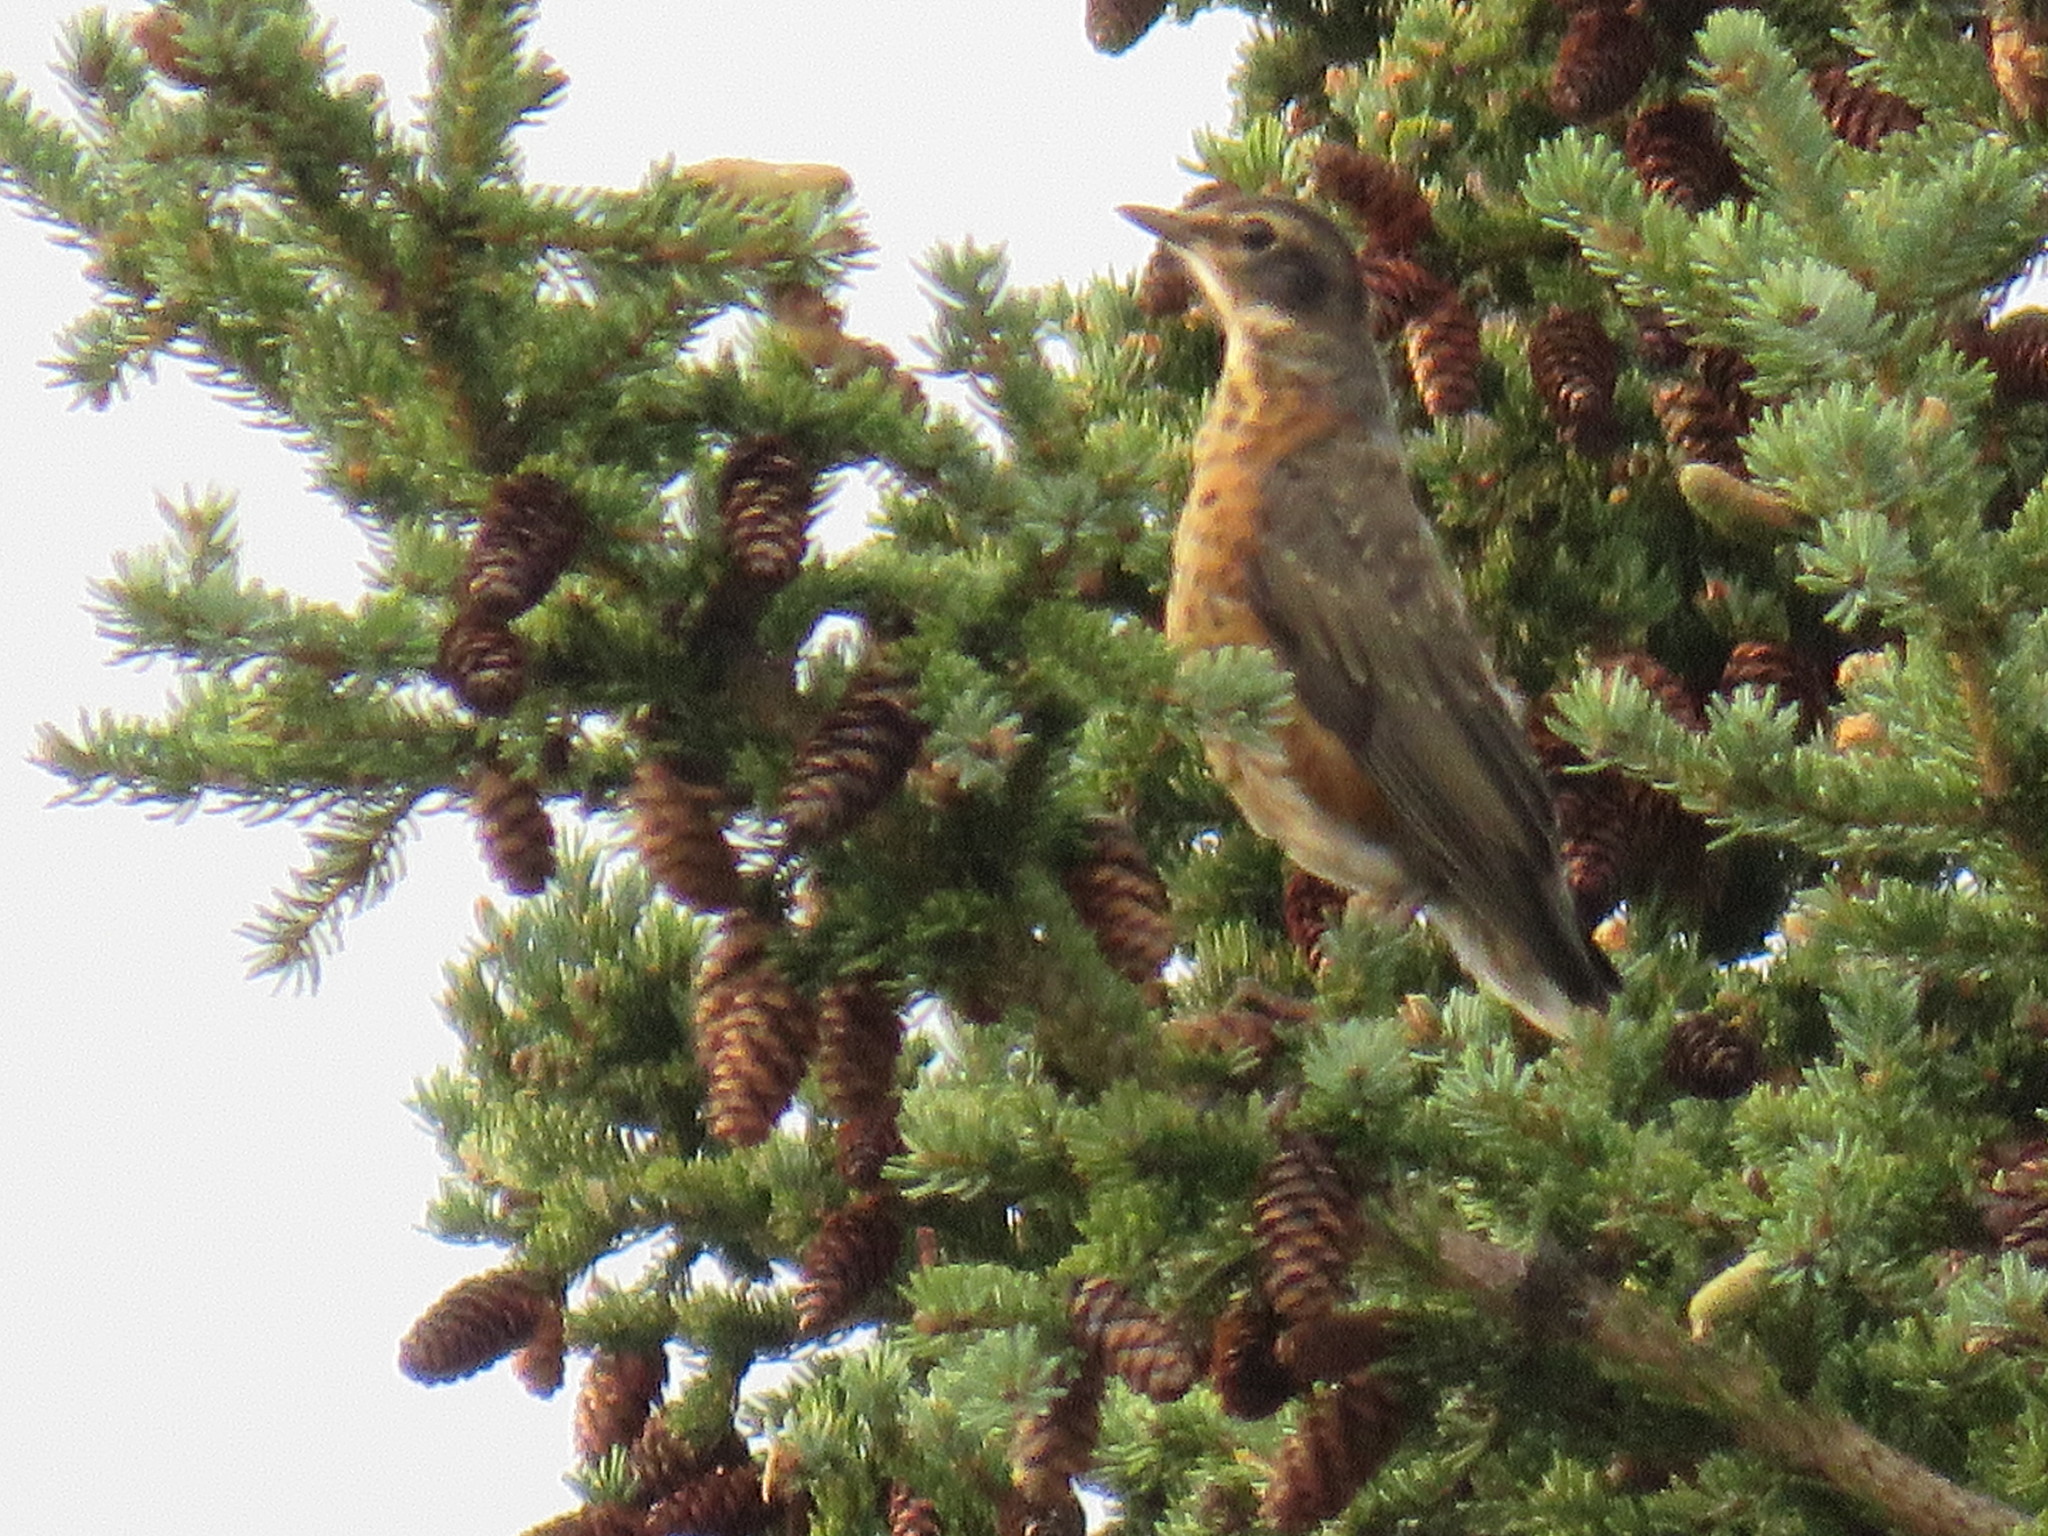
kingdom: Animalia
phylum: Chordata
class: Aves
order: Passeriformes
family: Turdidae
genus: Turdus
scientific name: Turdus migratorius
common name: American robin
